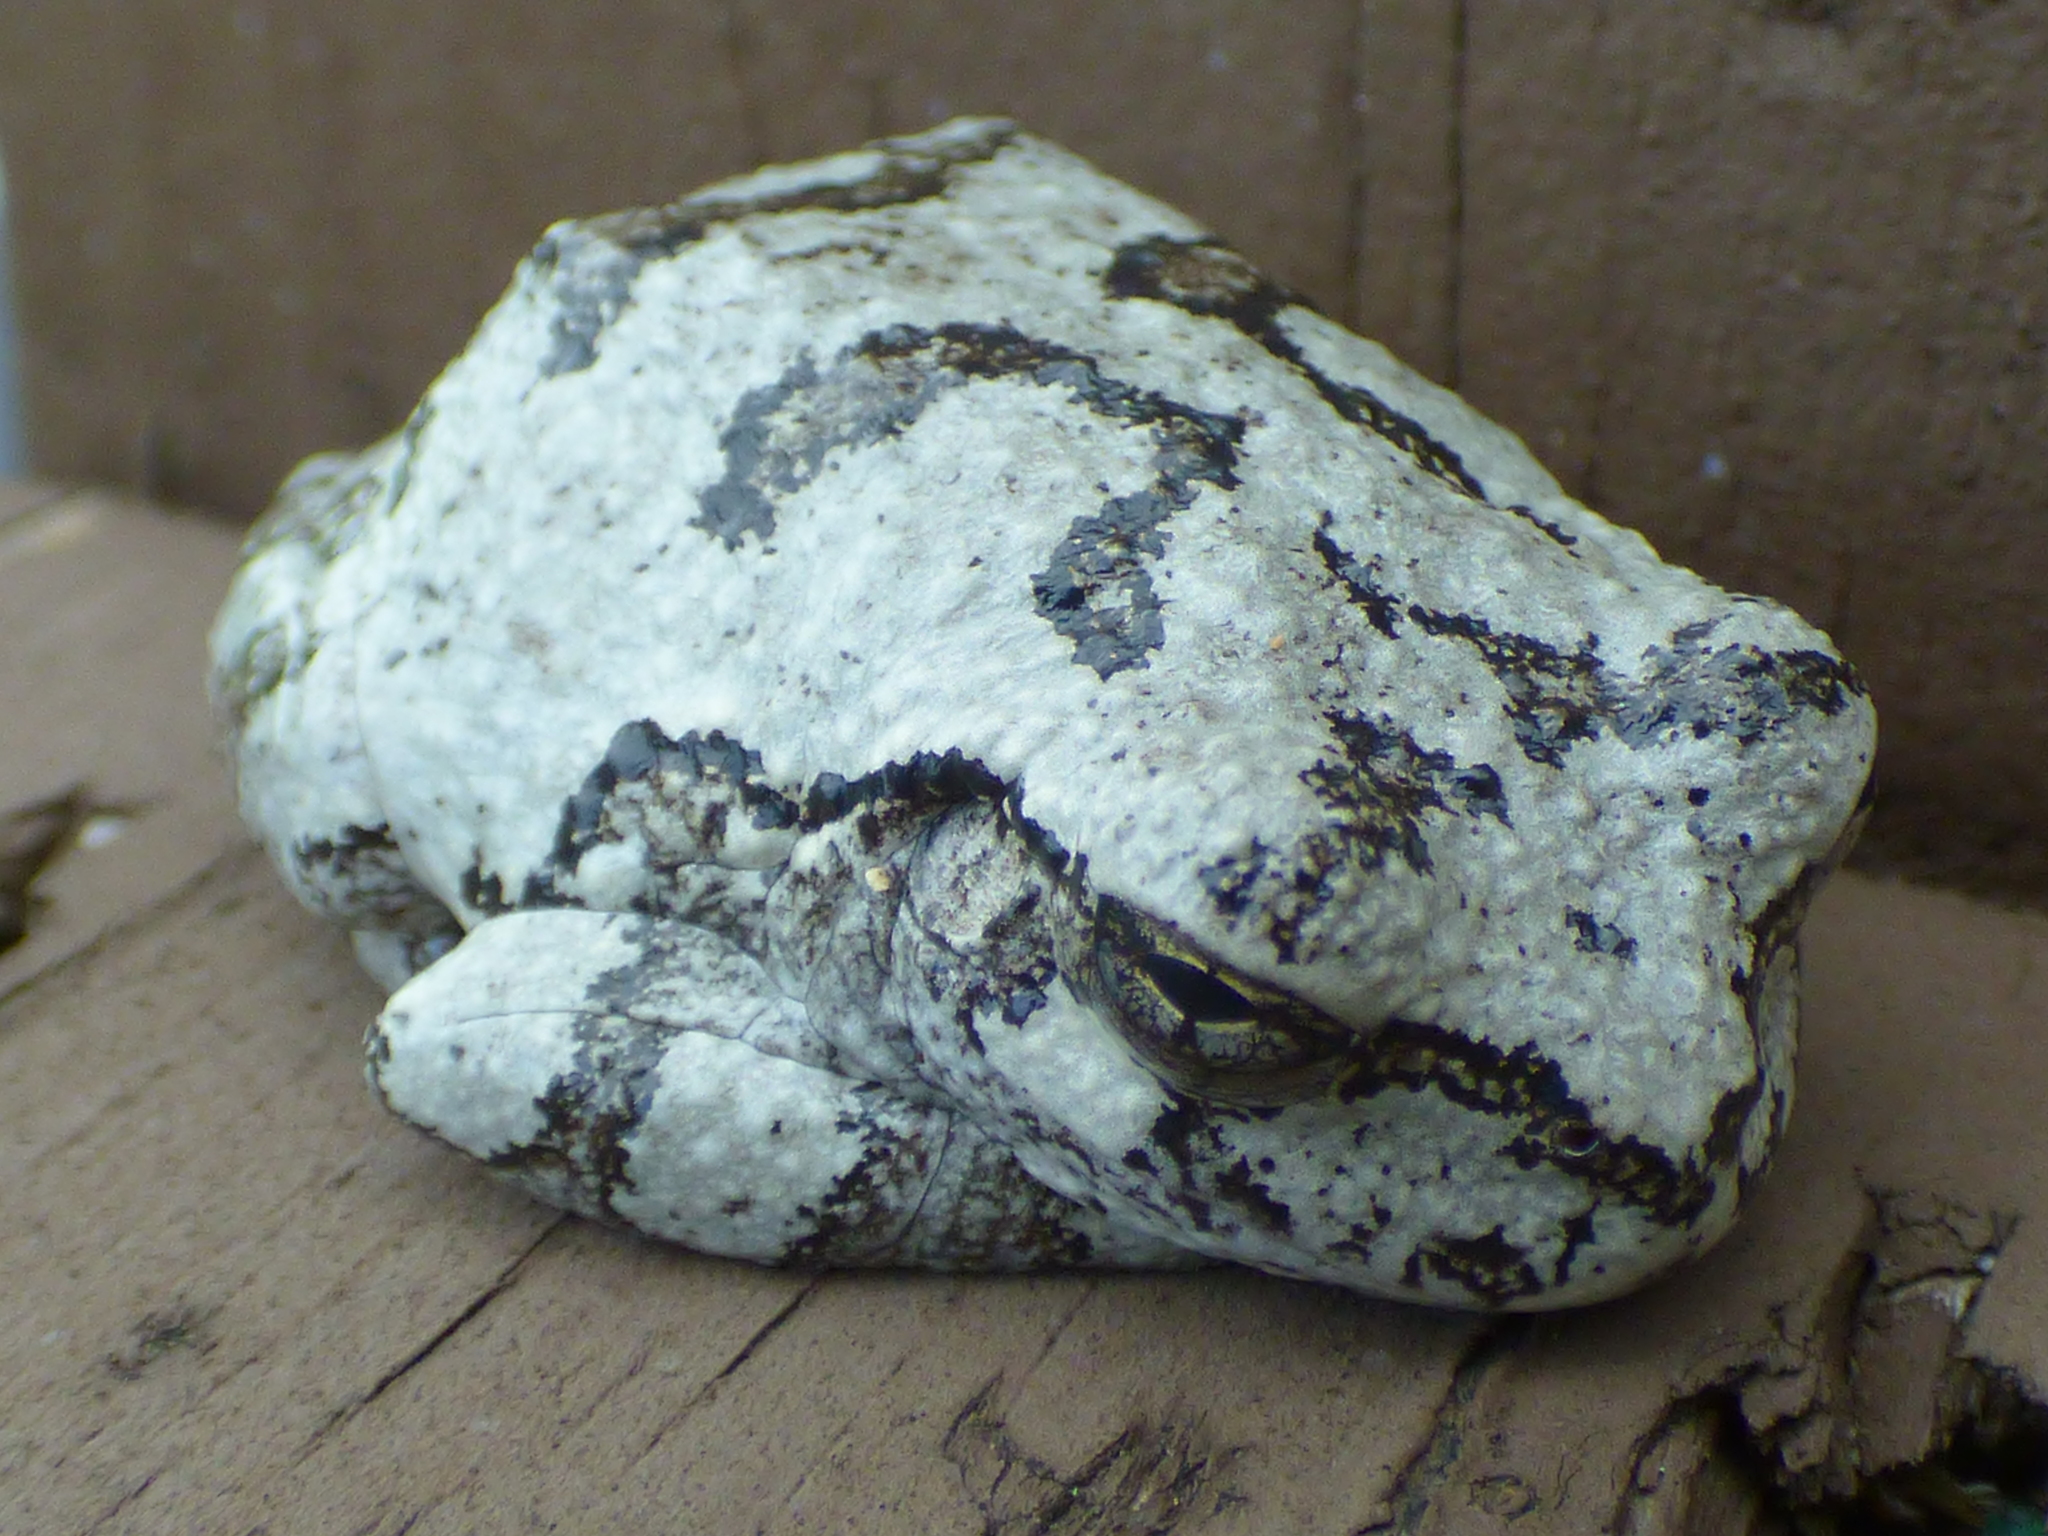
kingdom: Animalia
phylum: Chordata
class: Amphibia
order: Anura
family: Hylidae
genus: Dryophytes
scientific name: Dryophytes chrysoscelis
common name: Cope's gray treefrog
